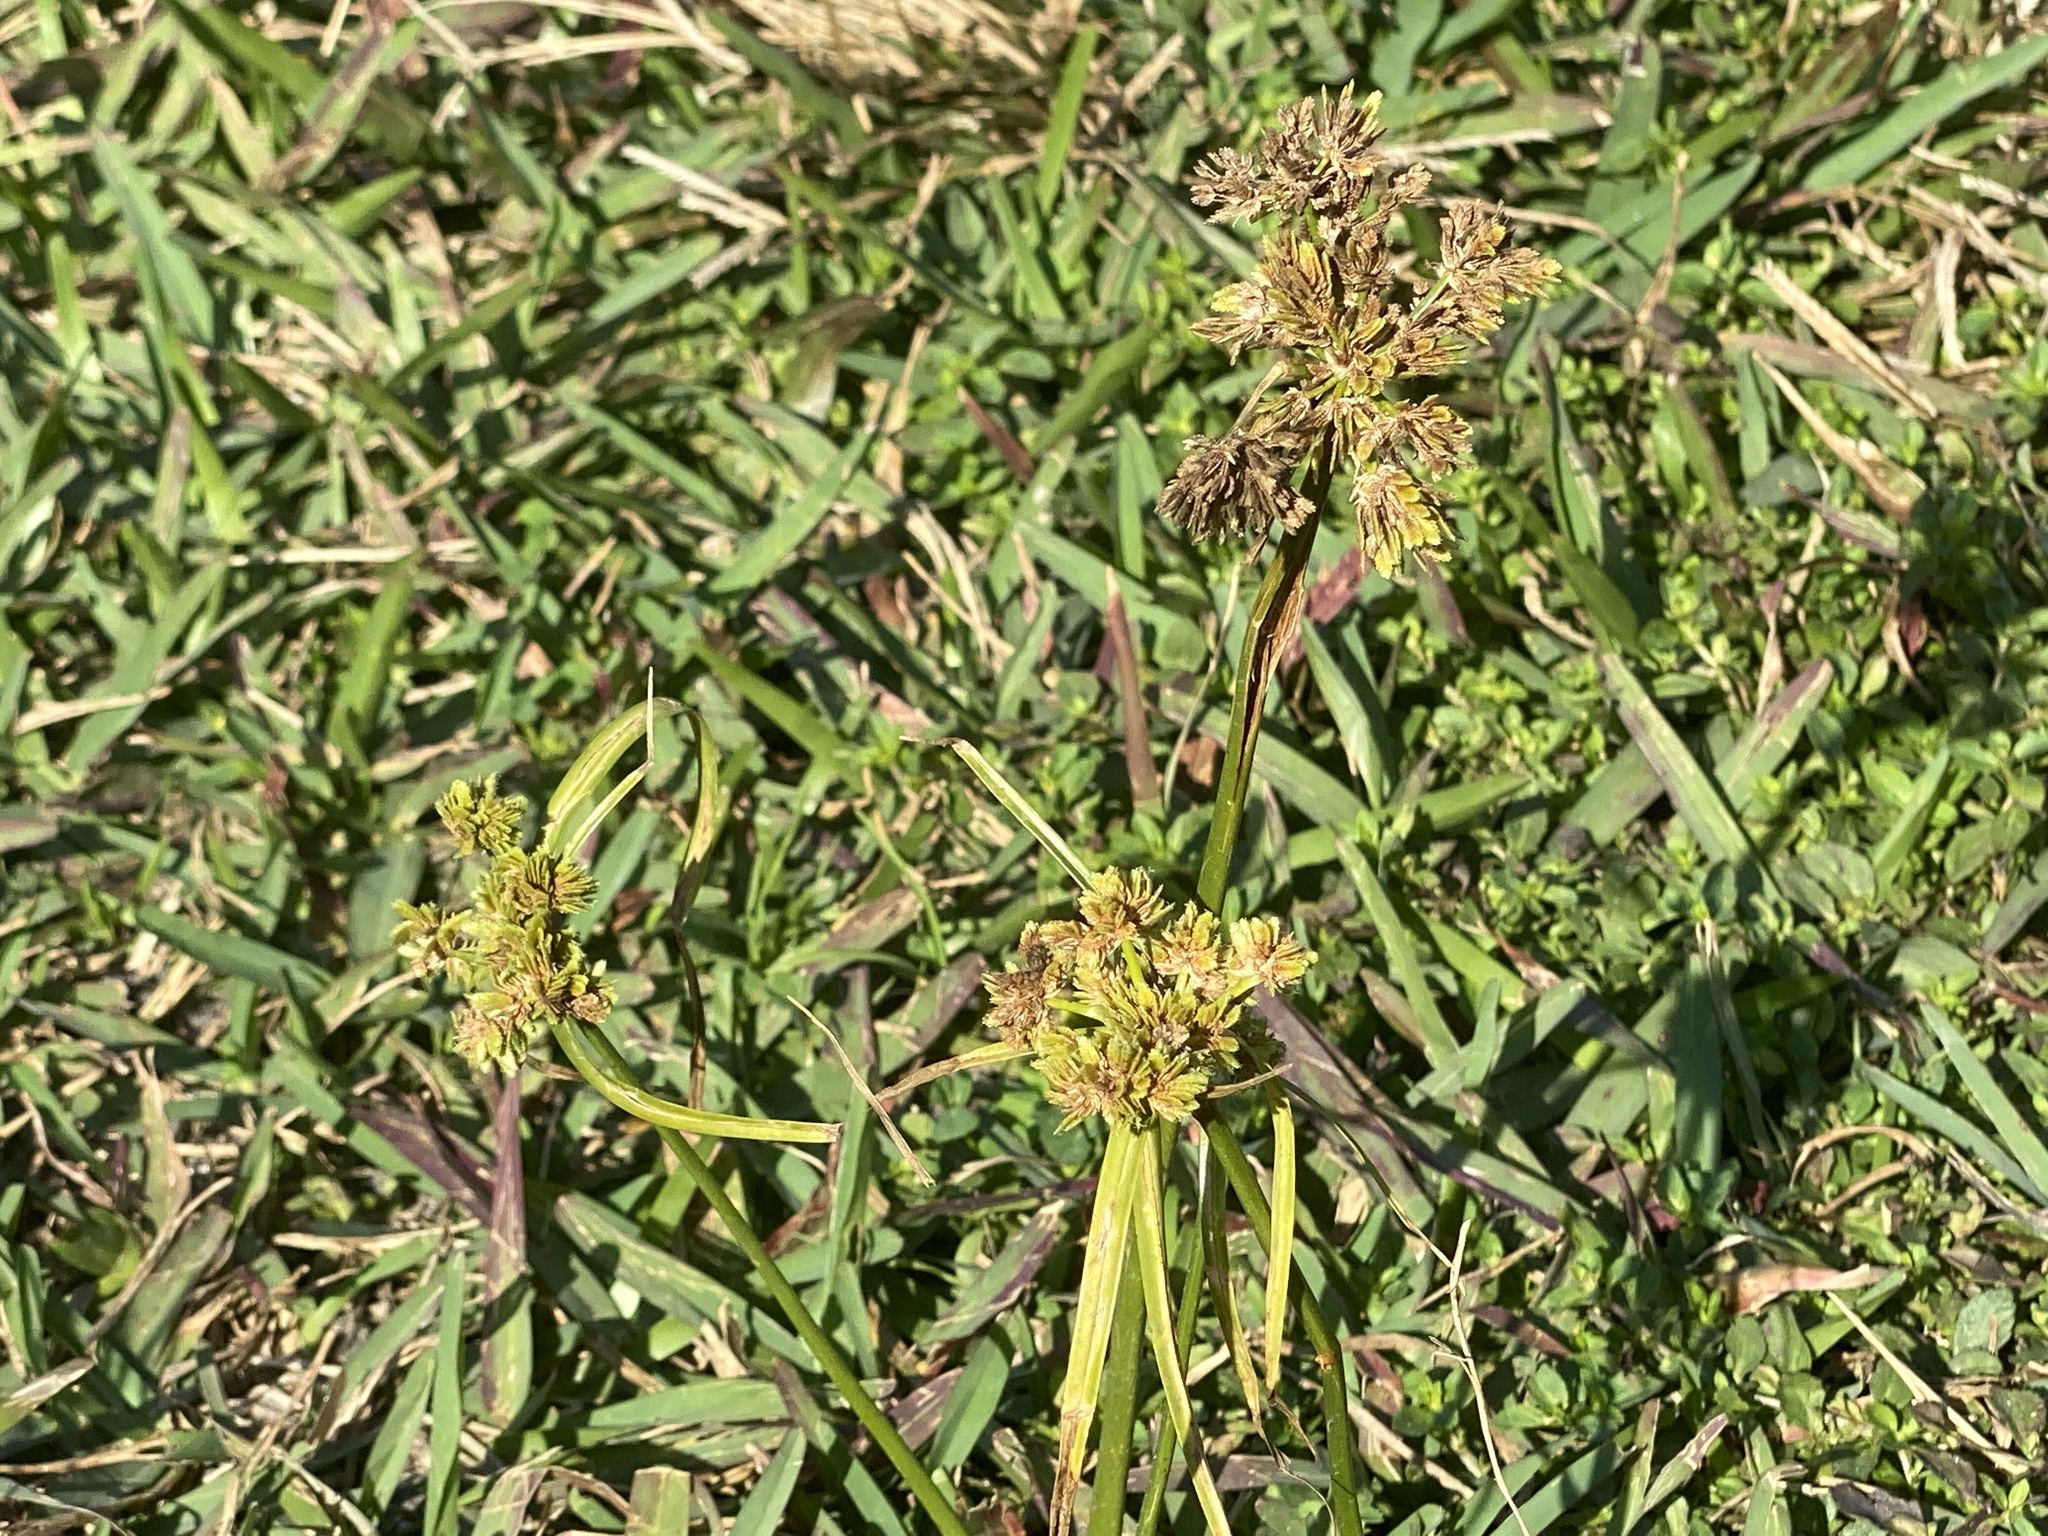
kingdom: Plantae
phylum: Tracheophyta
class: Liliopsida
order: Poales
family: Cyperaceae
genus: Cyperus
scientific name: Cyperus surinamensis
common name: Tropical flat sedge
